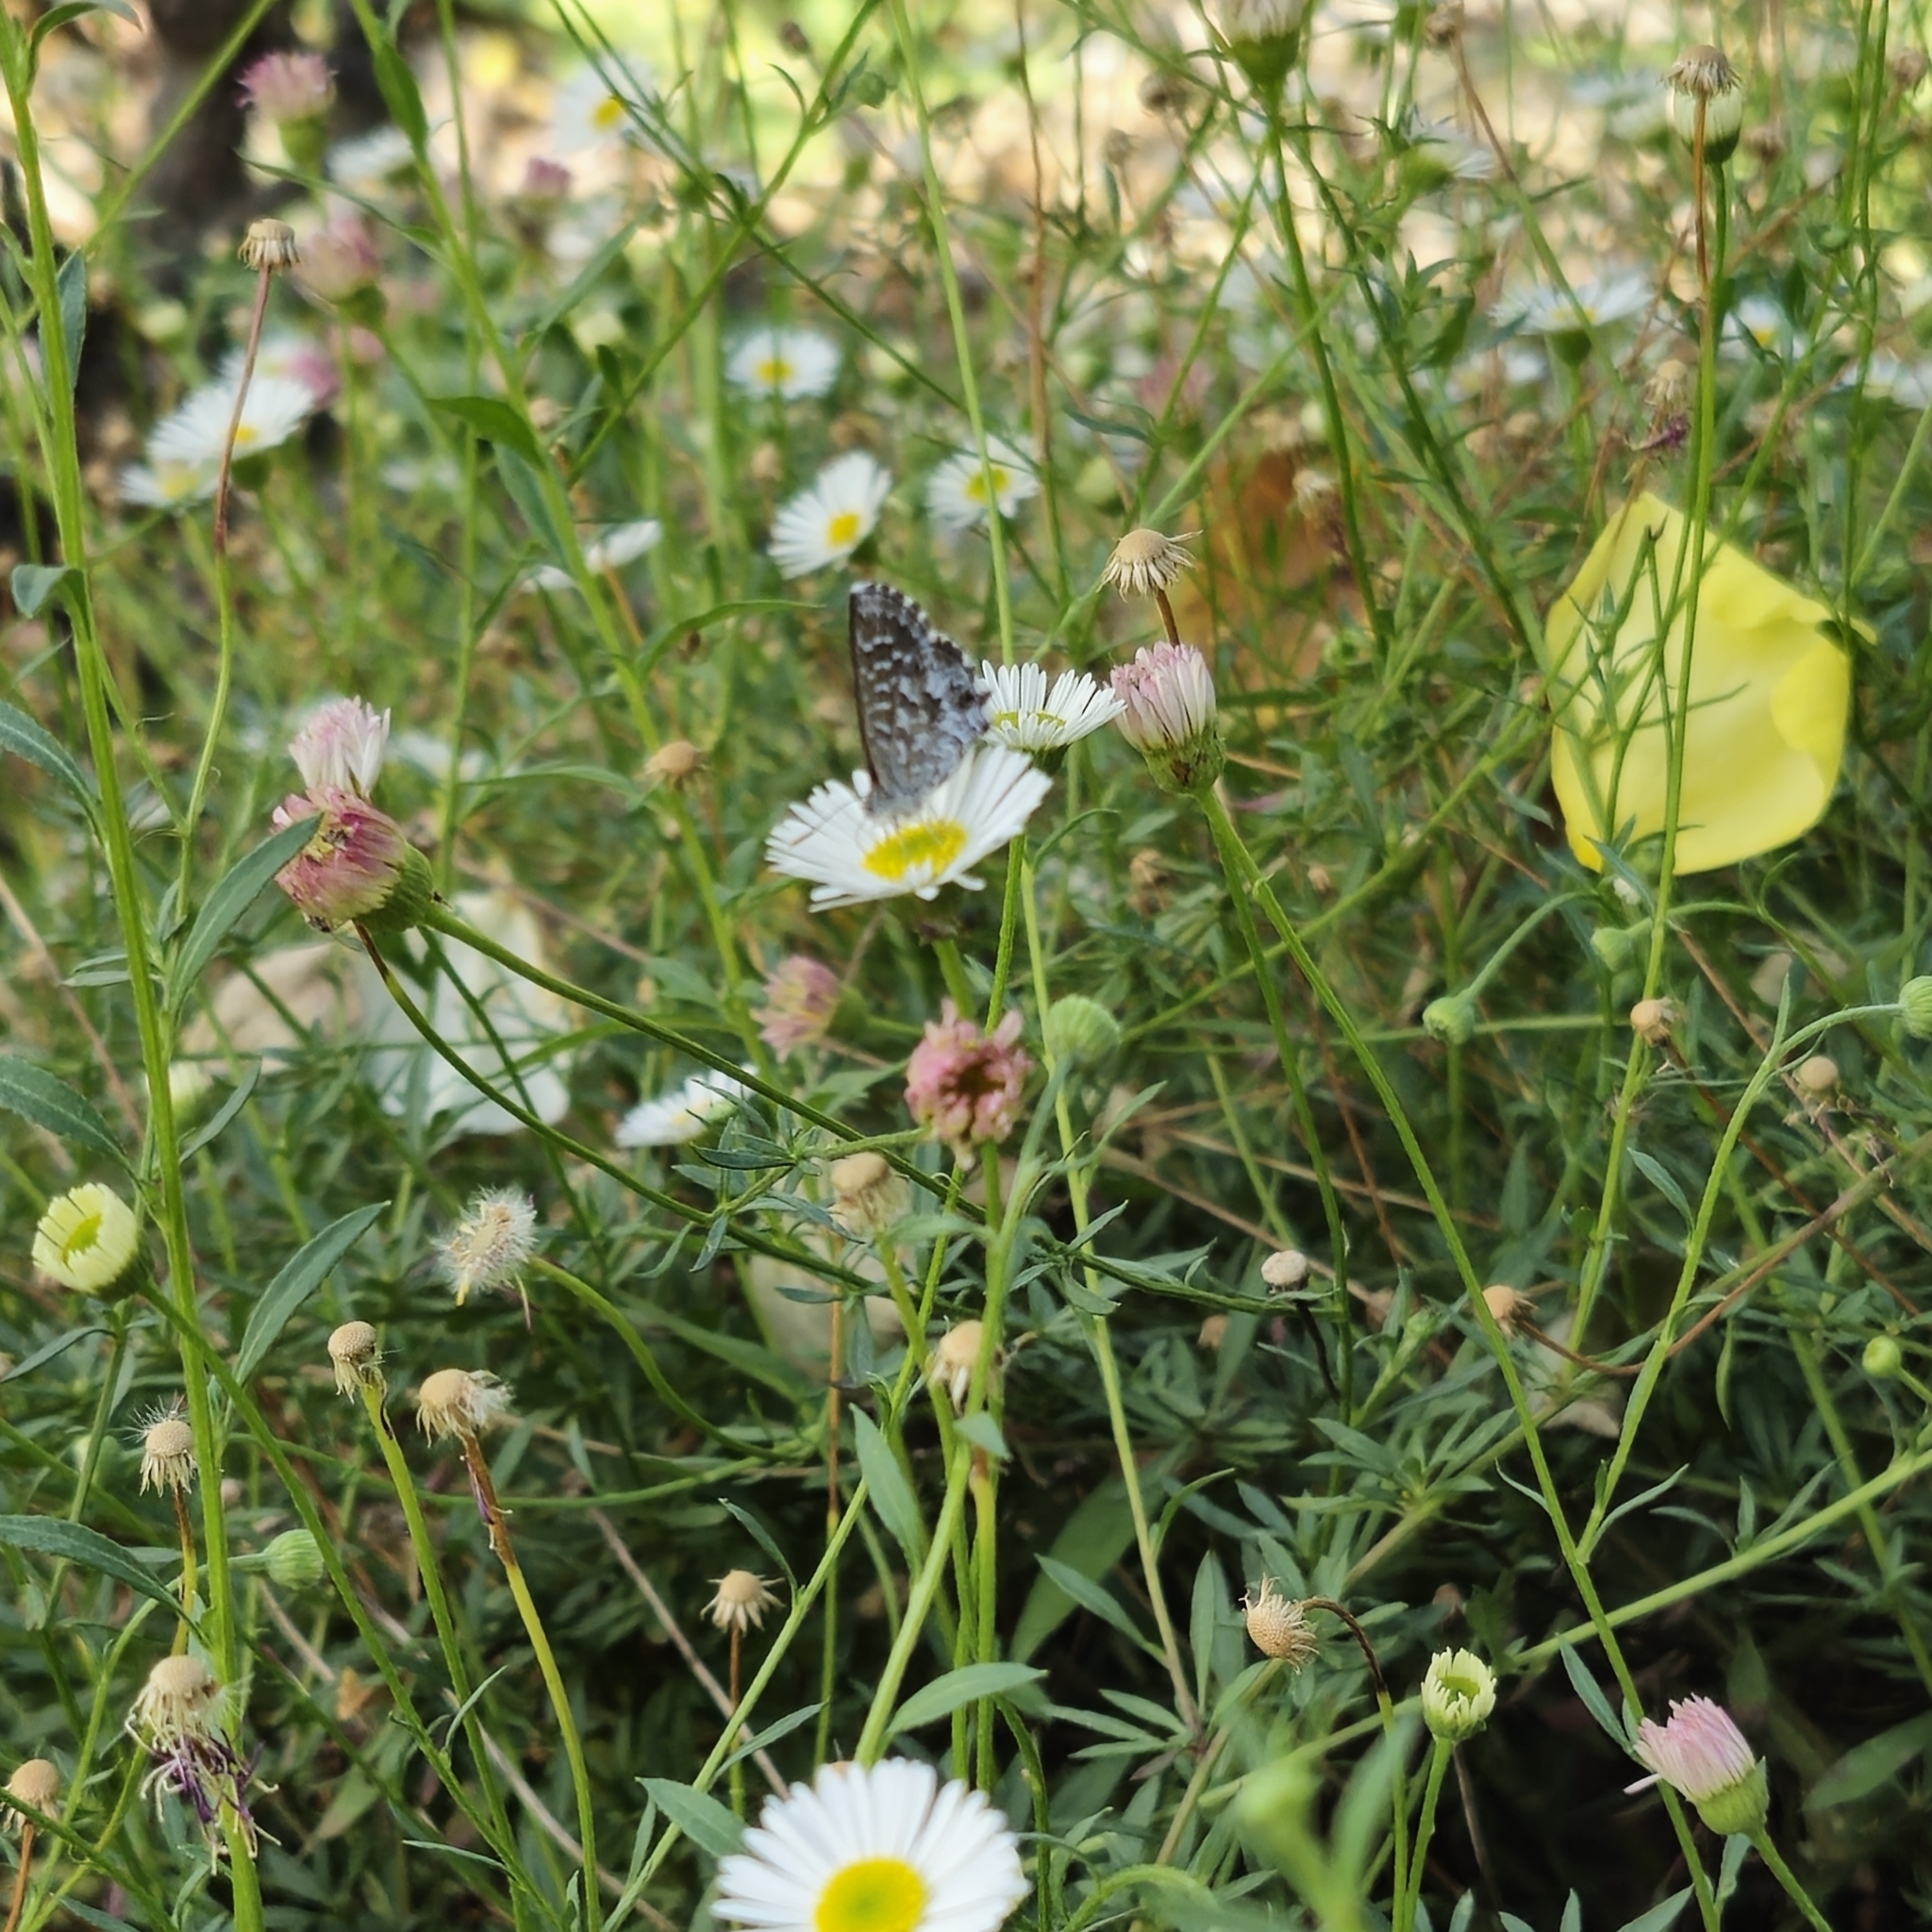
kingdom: Animalia
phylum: Arthropoda
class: Insecta
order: Lepidoptera
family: Lycaenidae
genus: Theclinesthes
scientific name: Theclinesthes serpentata
